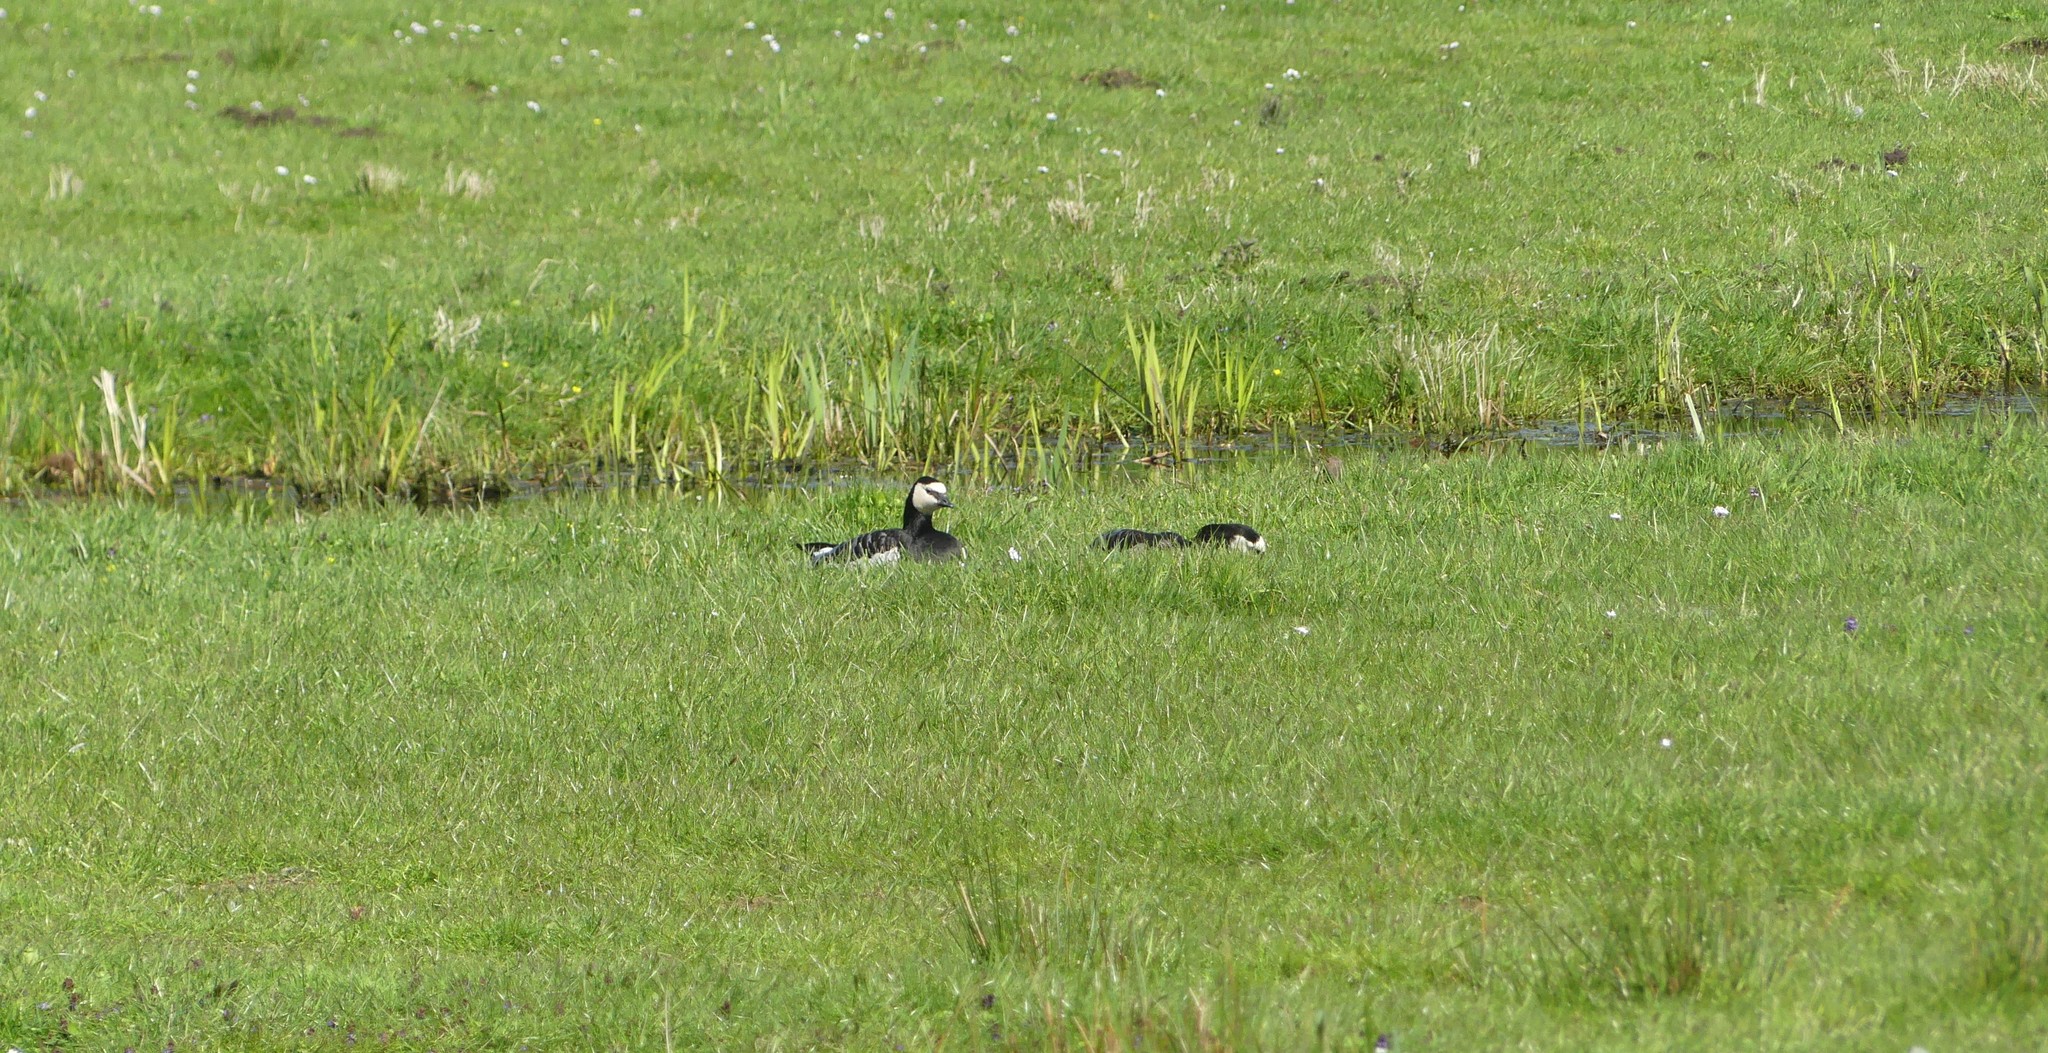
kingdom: Animalia
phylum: Chordata
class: Aves
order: Anseriformes
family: Anatidae
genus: Branta
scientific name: Branta leucopsis
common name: Barnacle goose
